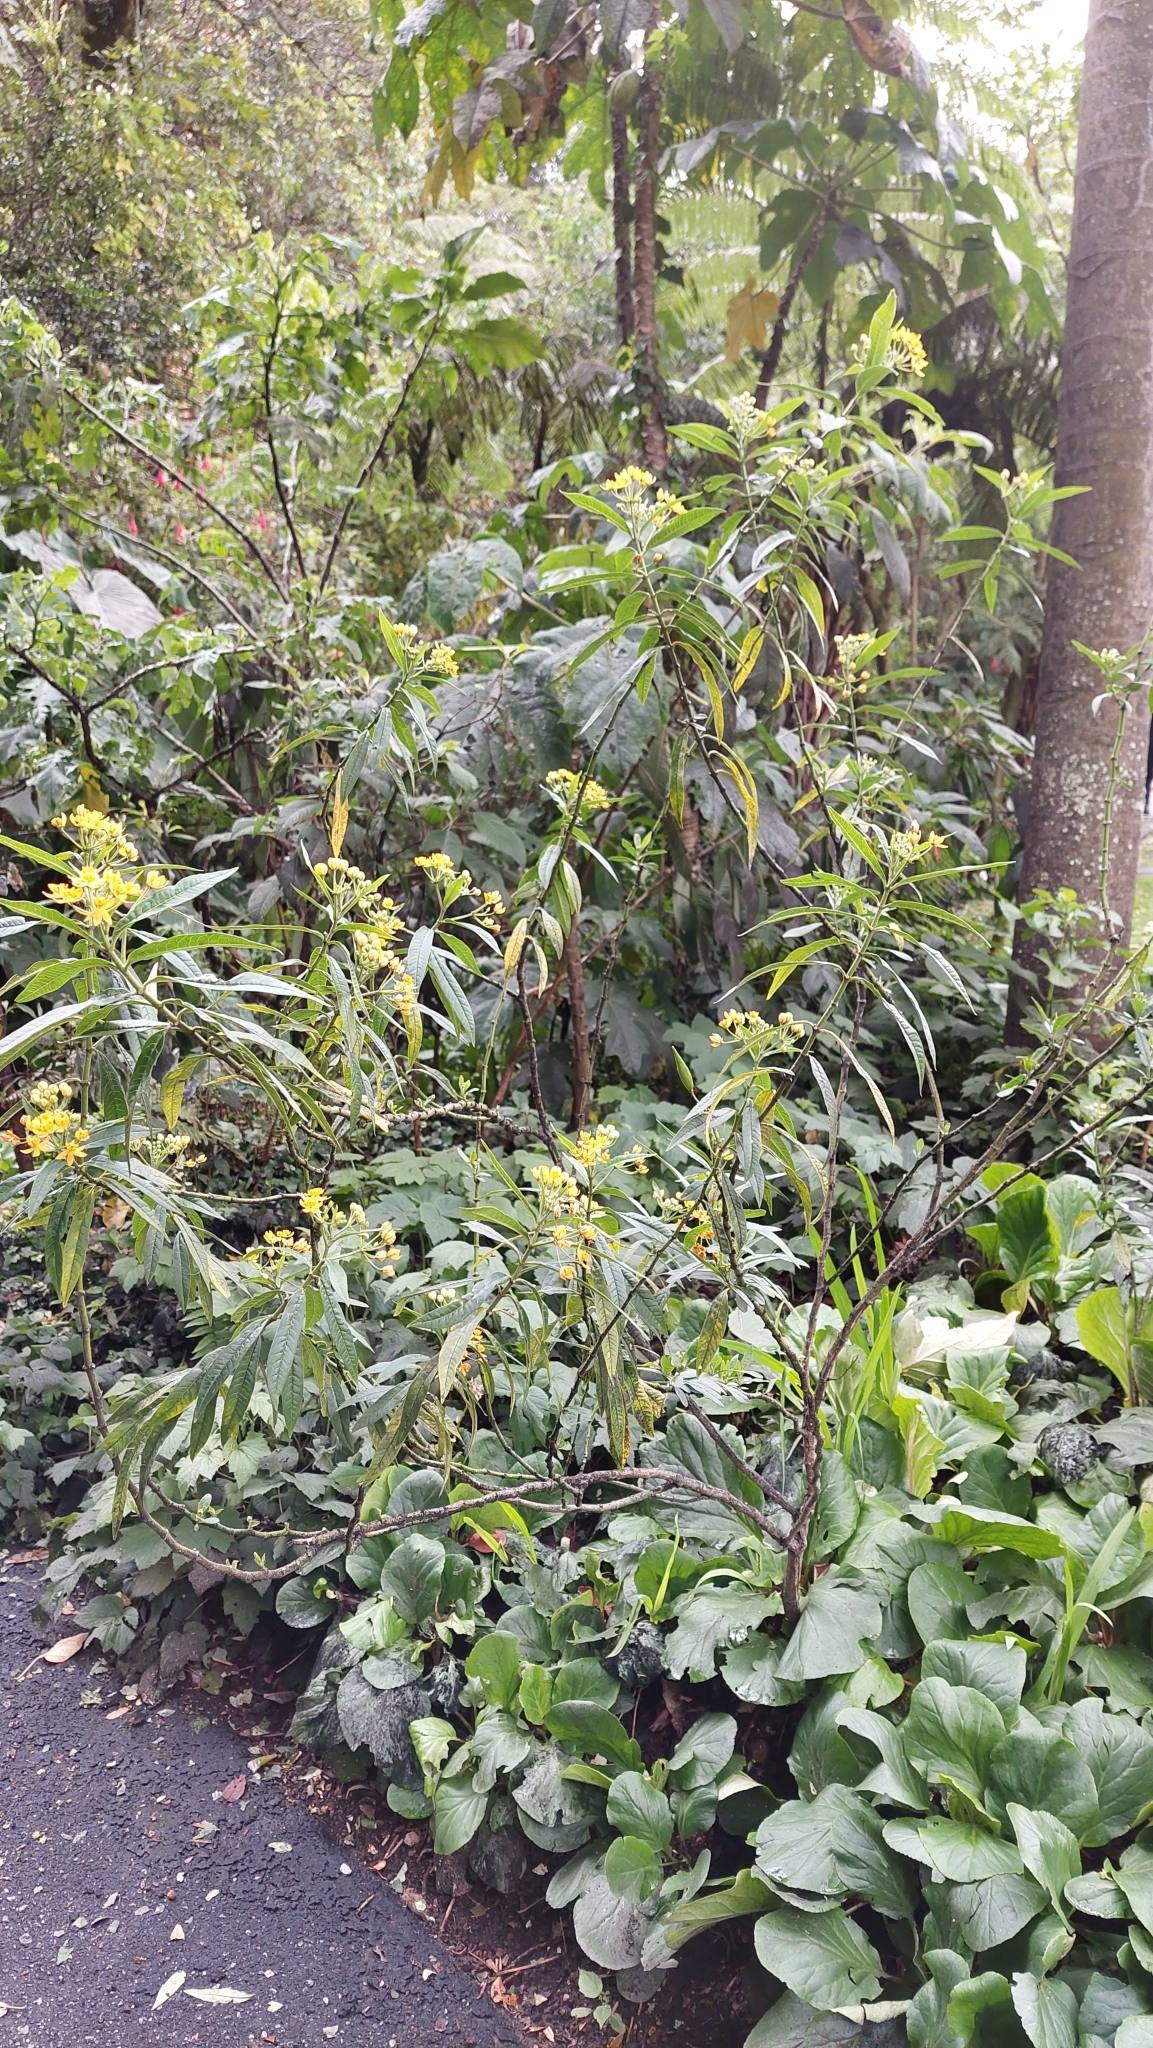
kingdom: Plantae
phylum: Tracheophyta
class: Magnoliopsida
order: Gentianales
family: Apocynaceae
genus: Asclepias
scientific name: Asclepias curassavica
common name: Bloodflower
